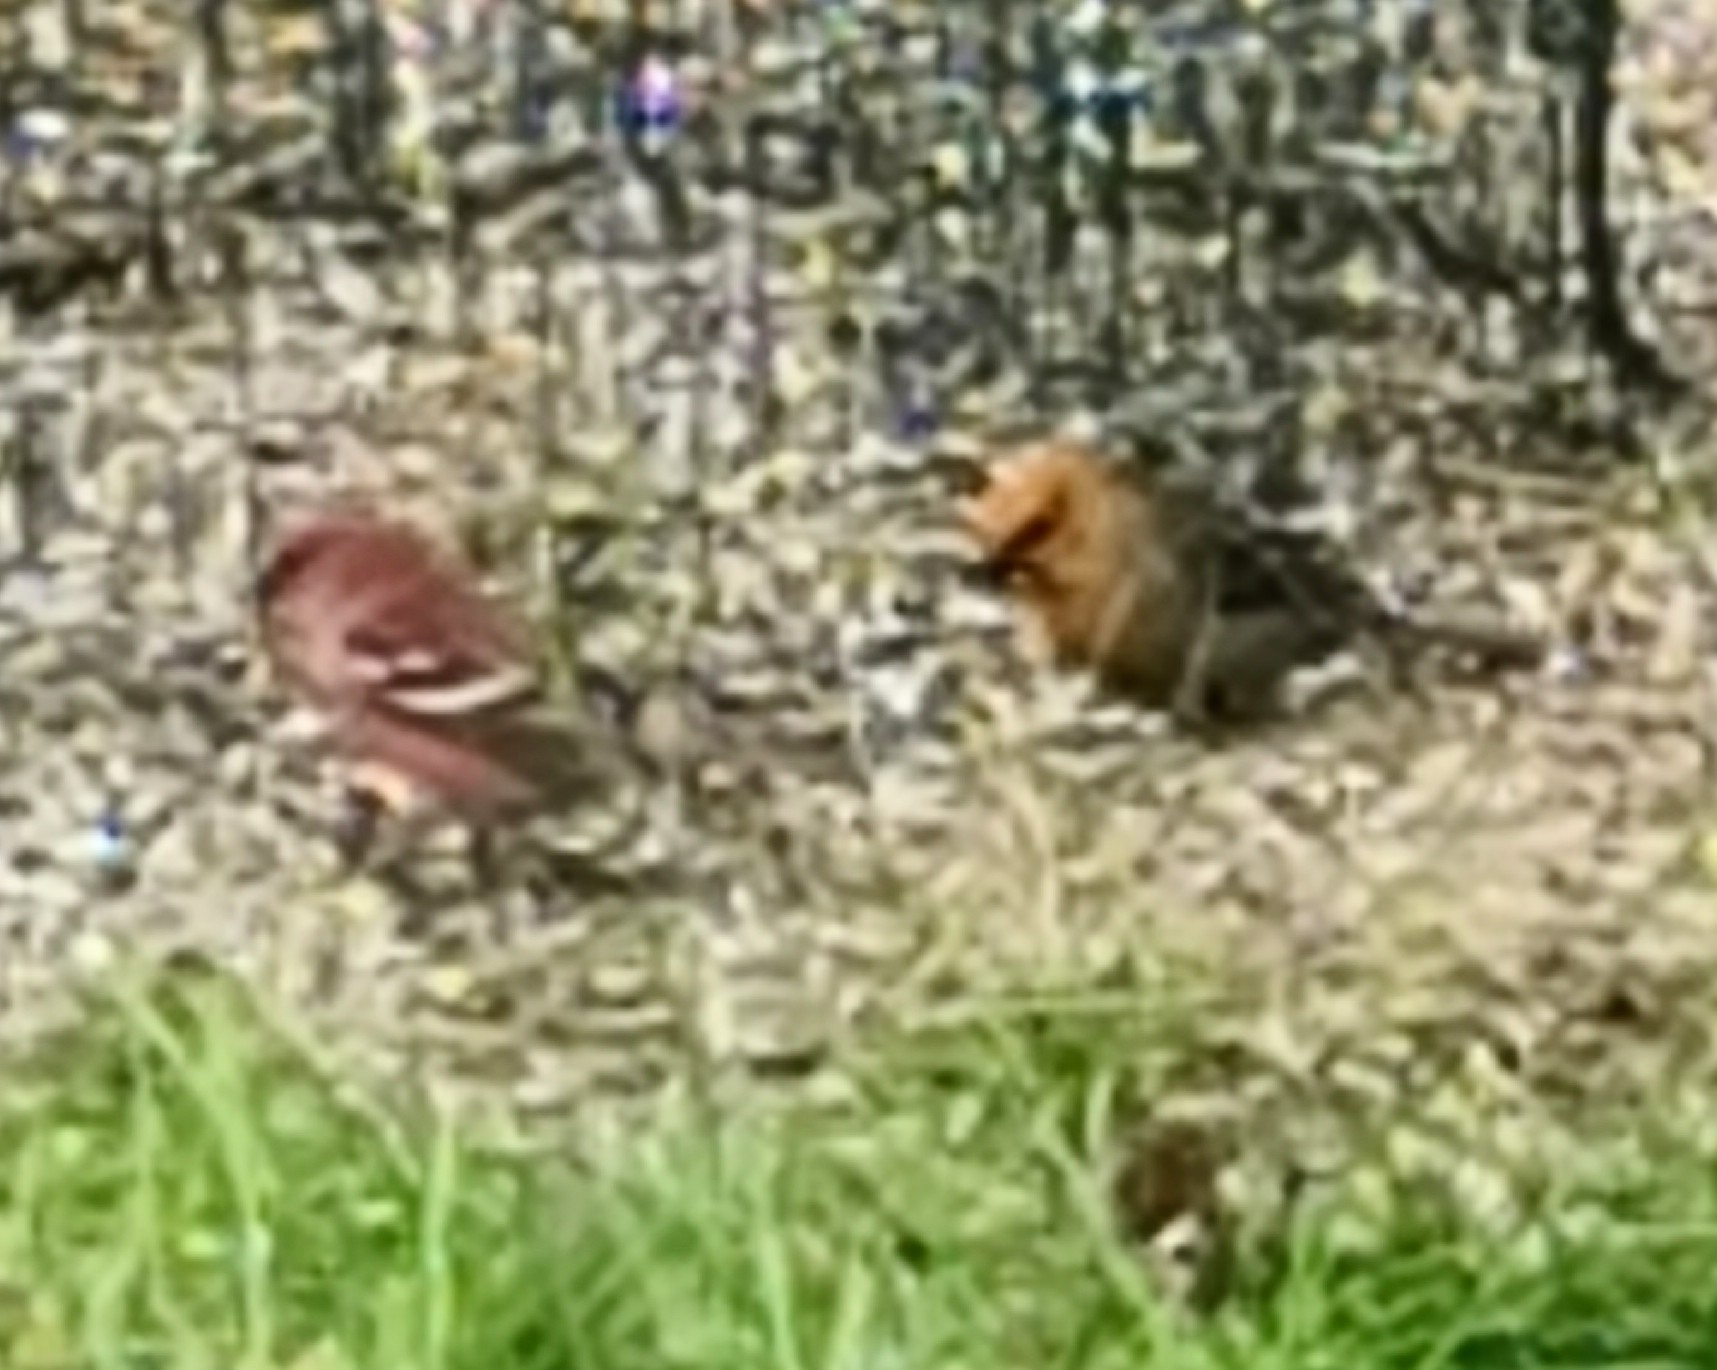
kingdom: Animalia
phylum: Chordata
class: Aves
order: Passeriformes
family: Fringillidae
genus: Pinicola
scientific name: Pinicola enucleator
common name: Pine grosbeak
